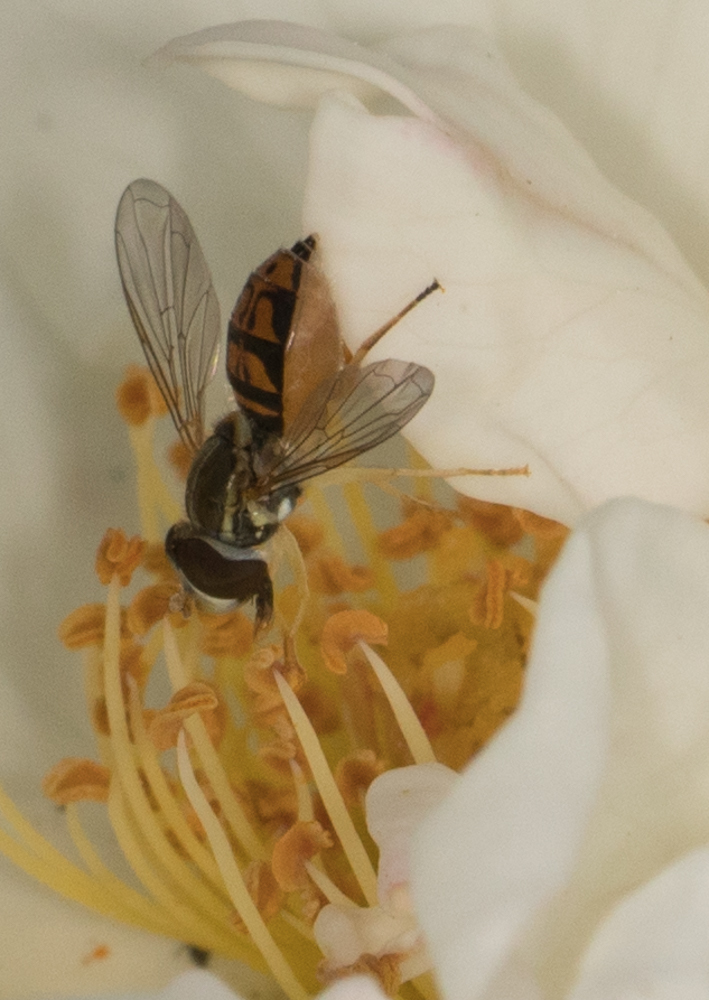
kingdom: Animalia
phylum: Arthropoda
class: Insecta
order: Diptera
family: Syrphidae
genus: Toxomerus
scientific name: Toxomerus marginatus
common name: Syrphid fly
